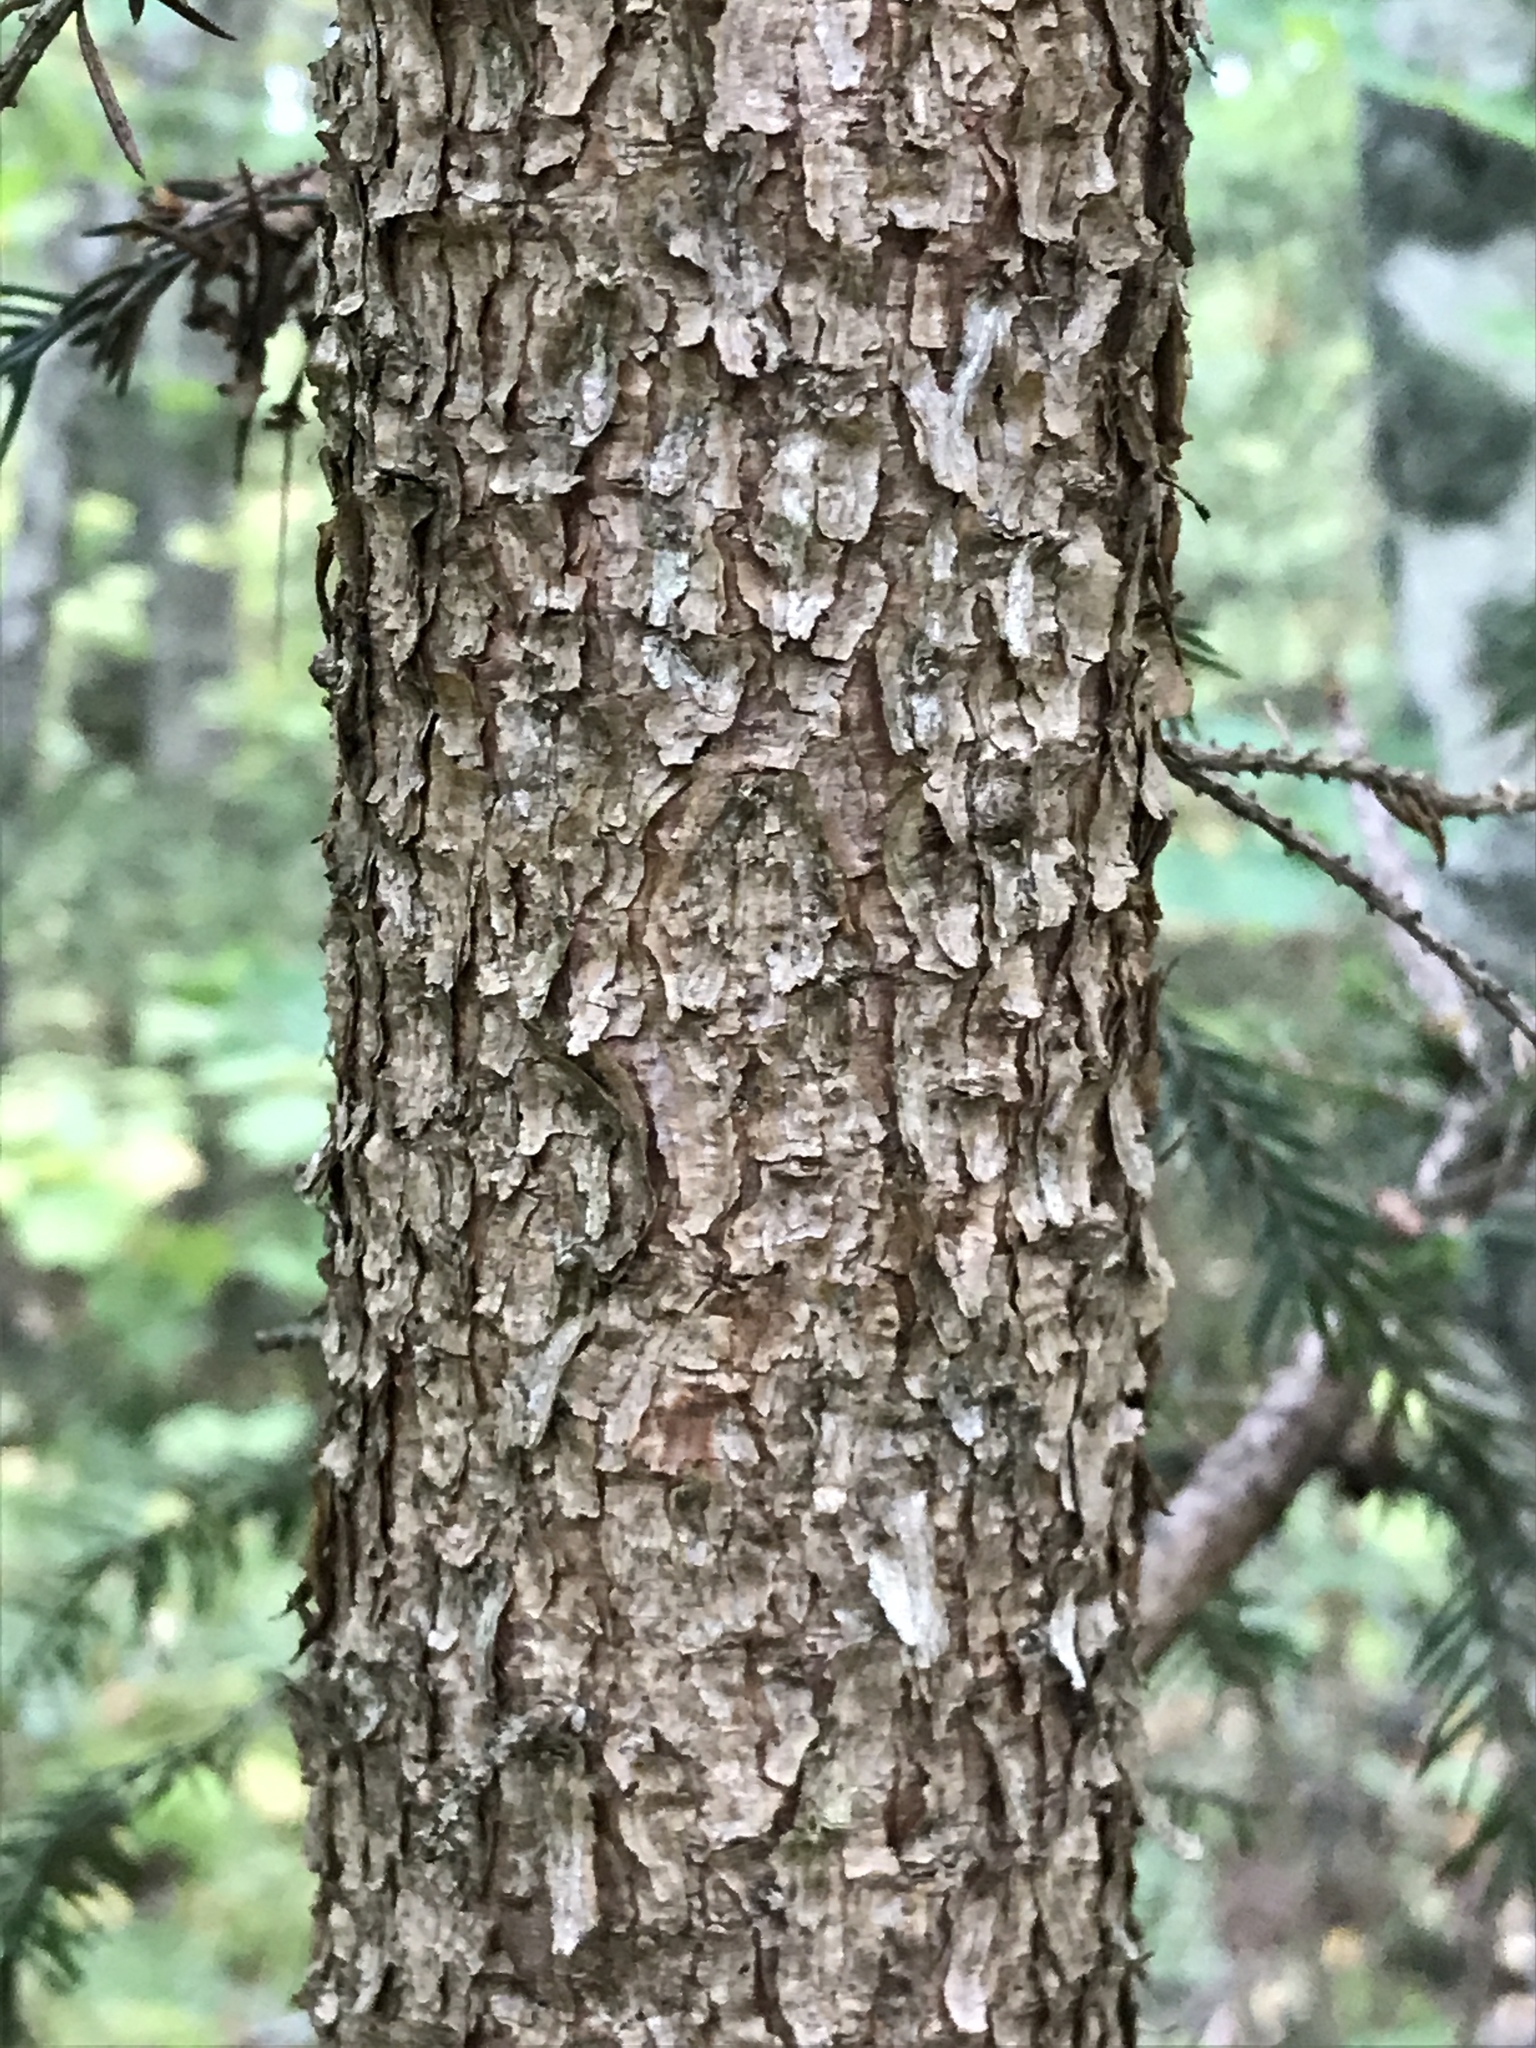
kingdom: Plantae
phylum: Tracheophyta
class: Pinopsida
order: Pinales
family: Pinaceae
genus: Picea
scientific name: Picea abies
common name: Norway spruce
